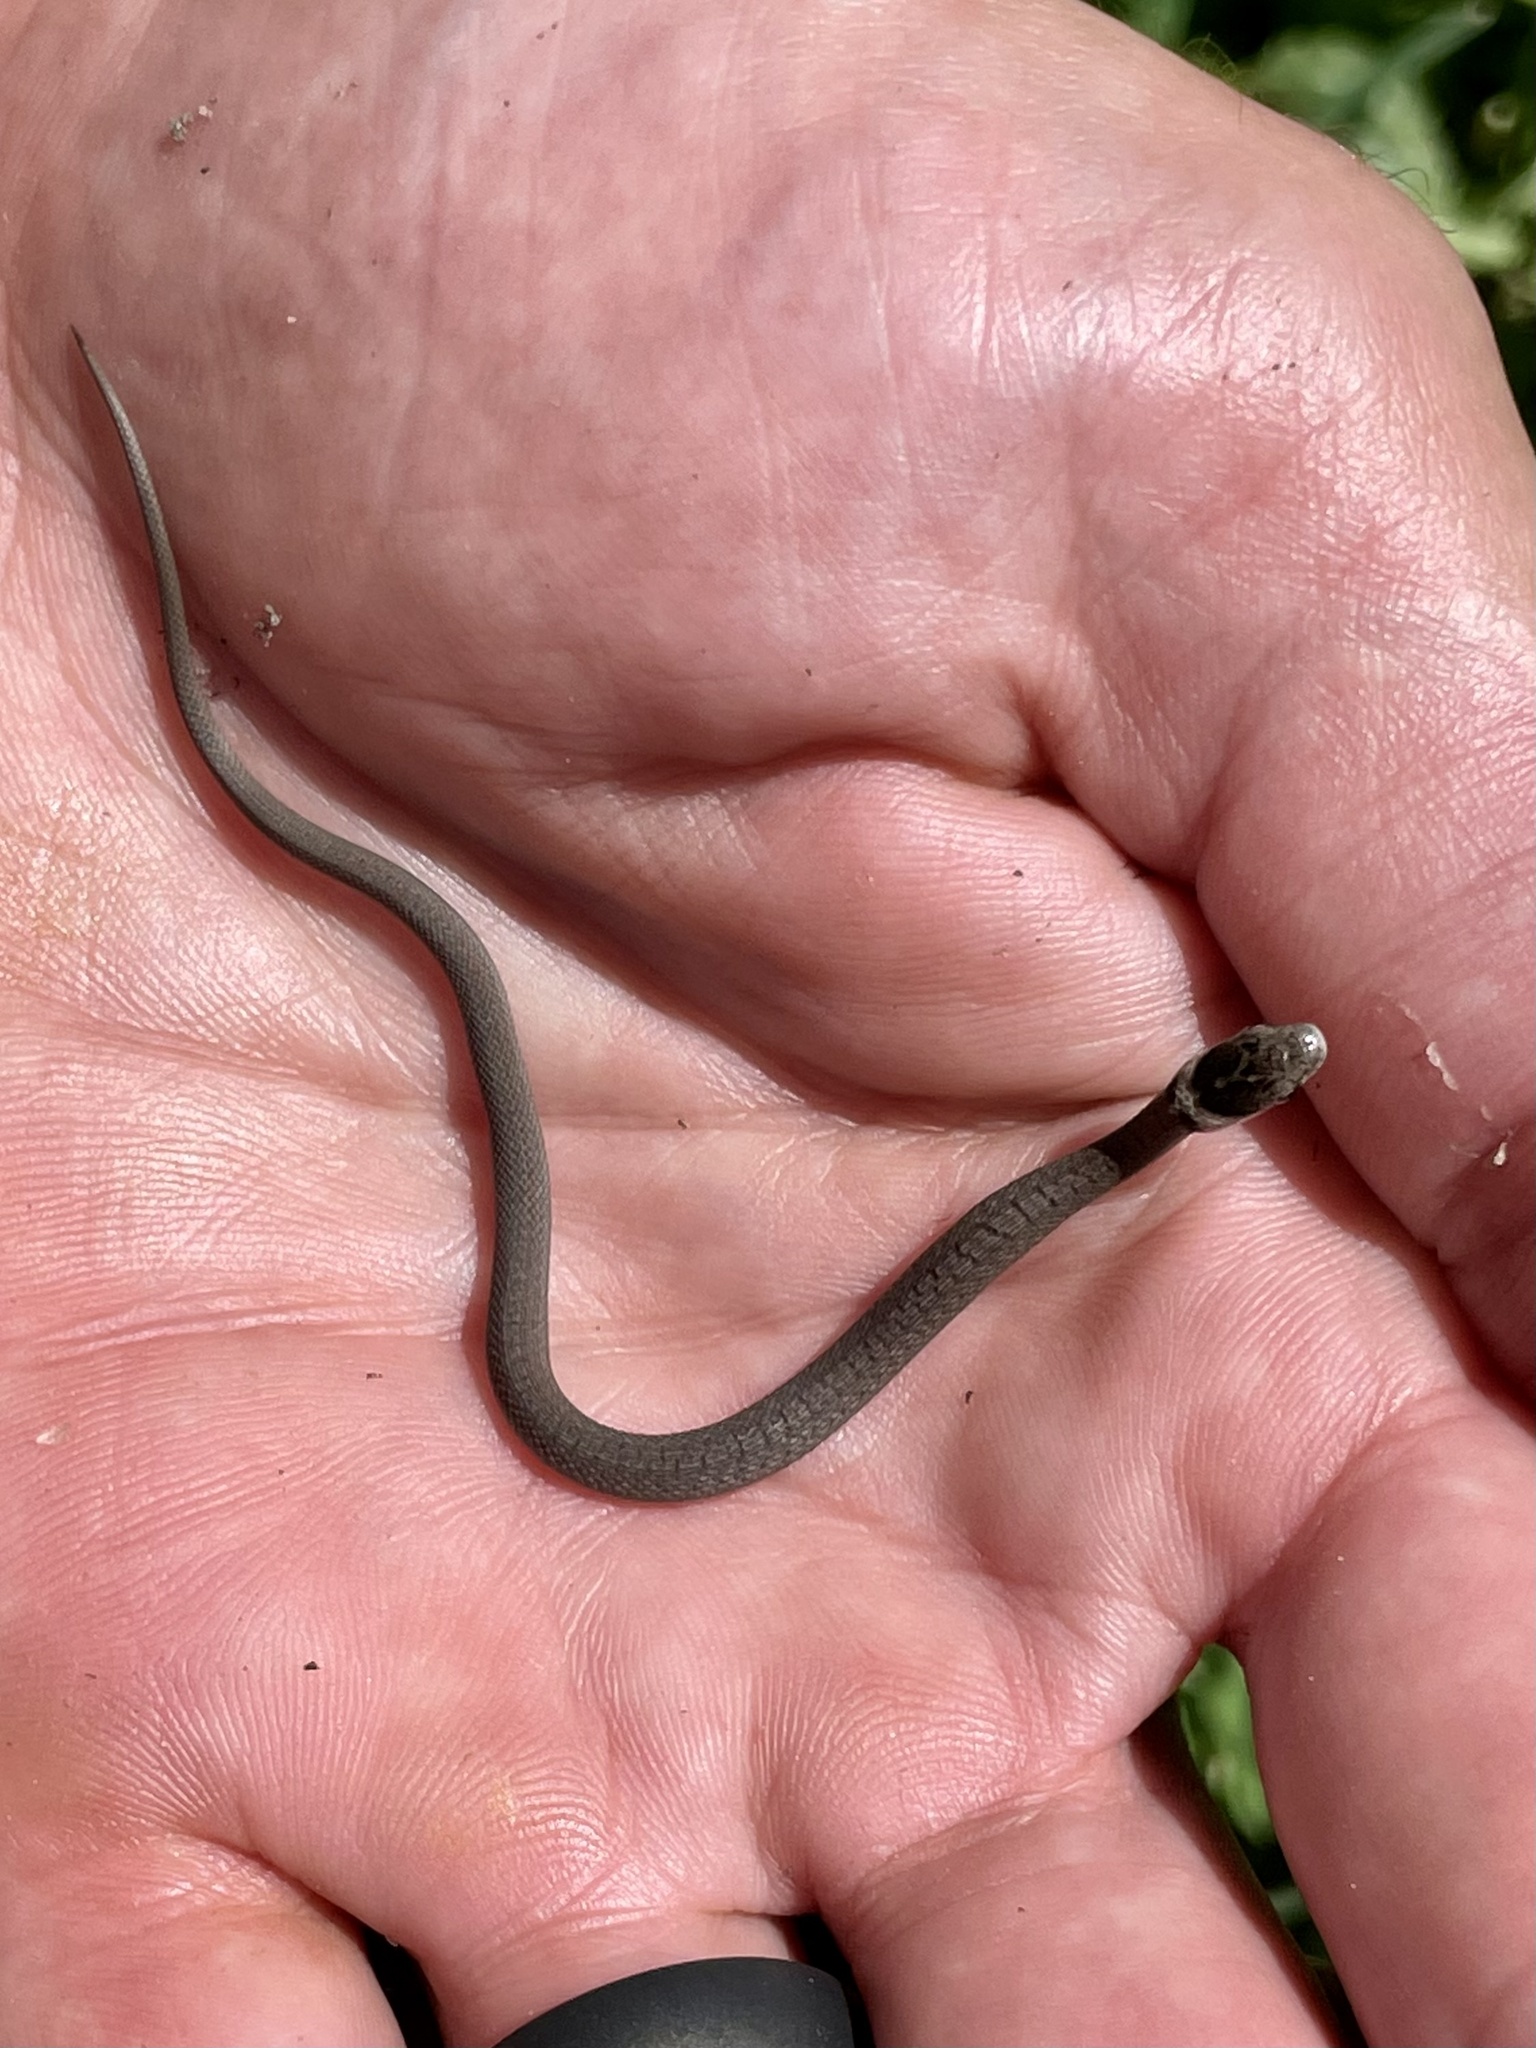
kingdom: Animalia
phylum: Chordata
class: Squamata
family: Colubridae
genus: Storeria
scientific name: Storeria dekayi
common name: (dekay’s) brown snake
